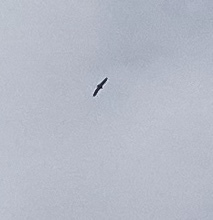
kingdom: Animalia
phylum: Chordata
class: Aves
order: Accipitriformes
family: Accipitridae
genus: Gyps
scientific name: Gyps fulvus
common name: Griffon vulture
